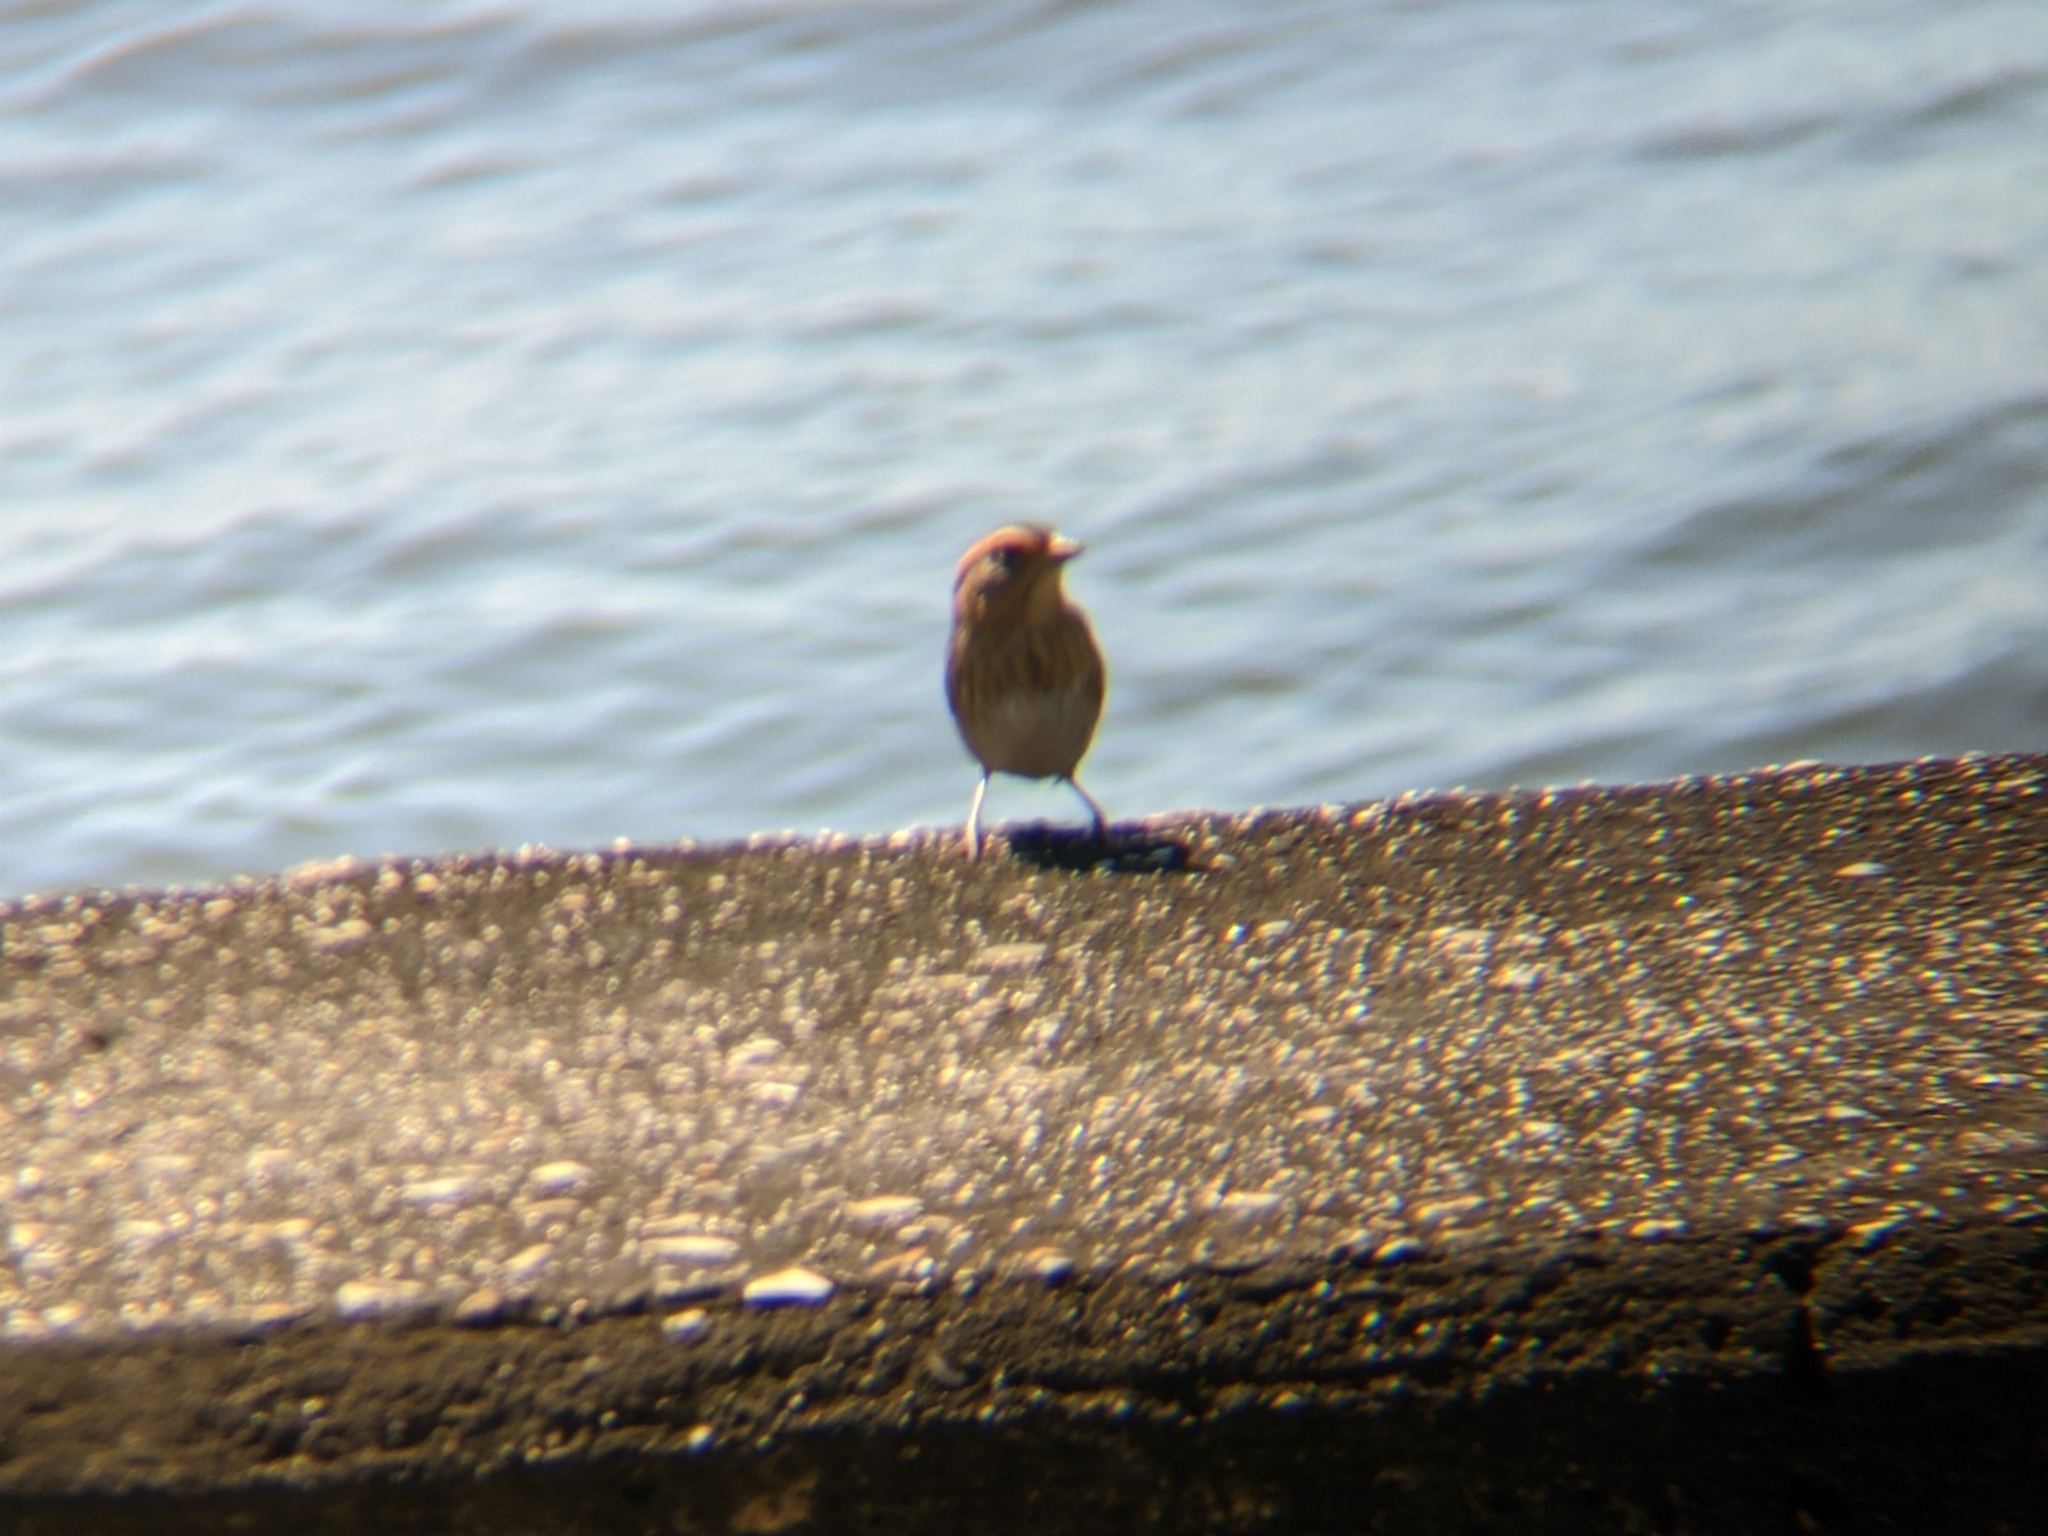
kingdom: Animalia
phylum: Chordata
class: Aves
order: Passeriformes
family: Passerellidae
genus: Ammospiza
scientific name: Ammospiza nelsoni
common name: Nelson's sparrow
